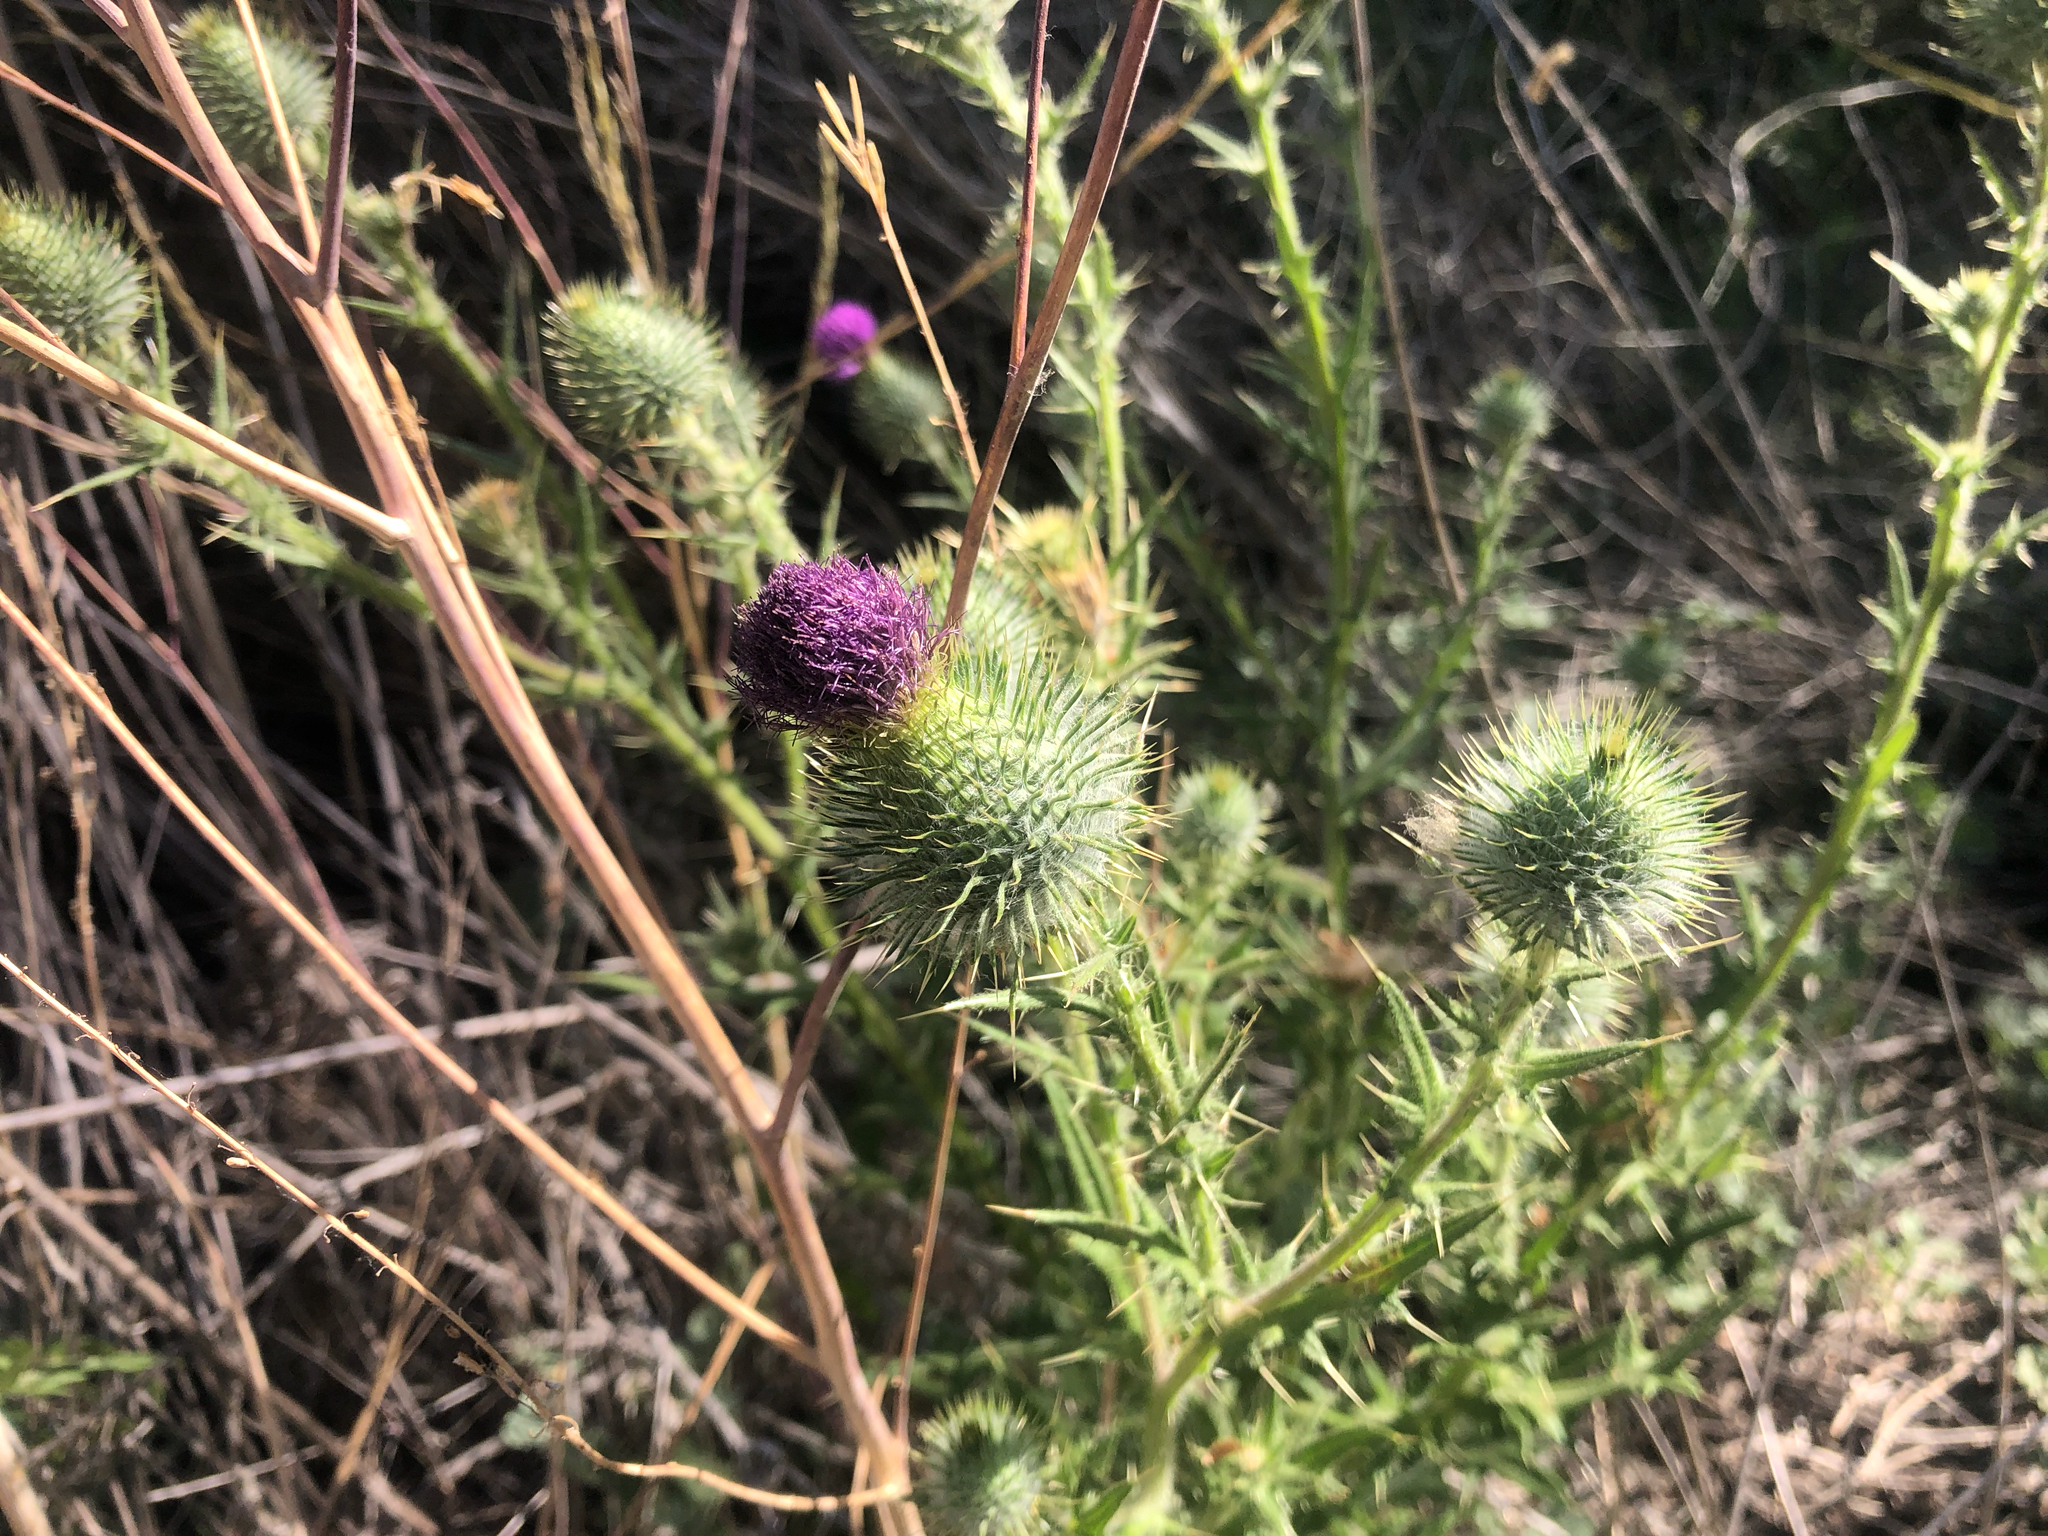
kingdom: Plantae
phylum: Tracheophyta
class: Magnoliopsida
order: Asterales
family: Asteraceae
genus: Cirsium
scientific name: Cirsium vulgare
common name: Bull thistle
